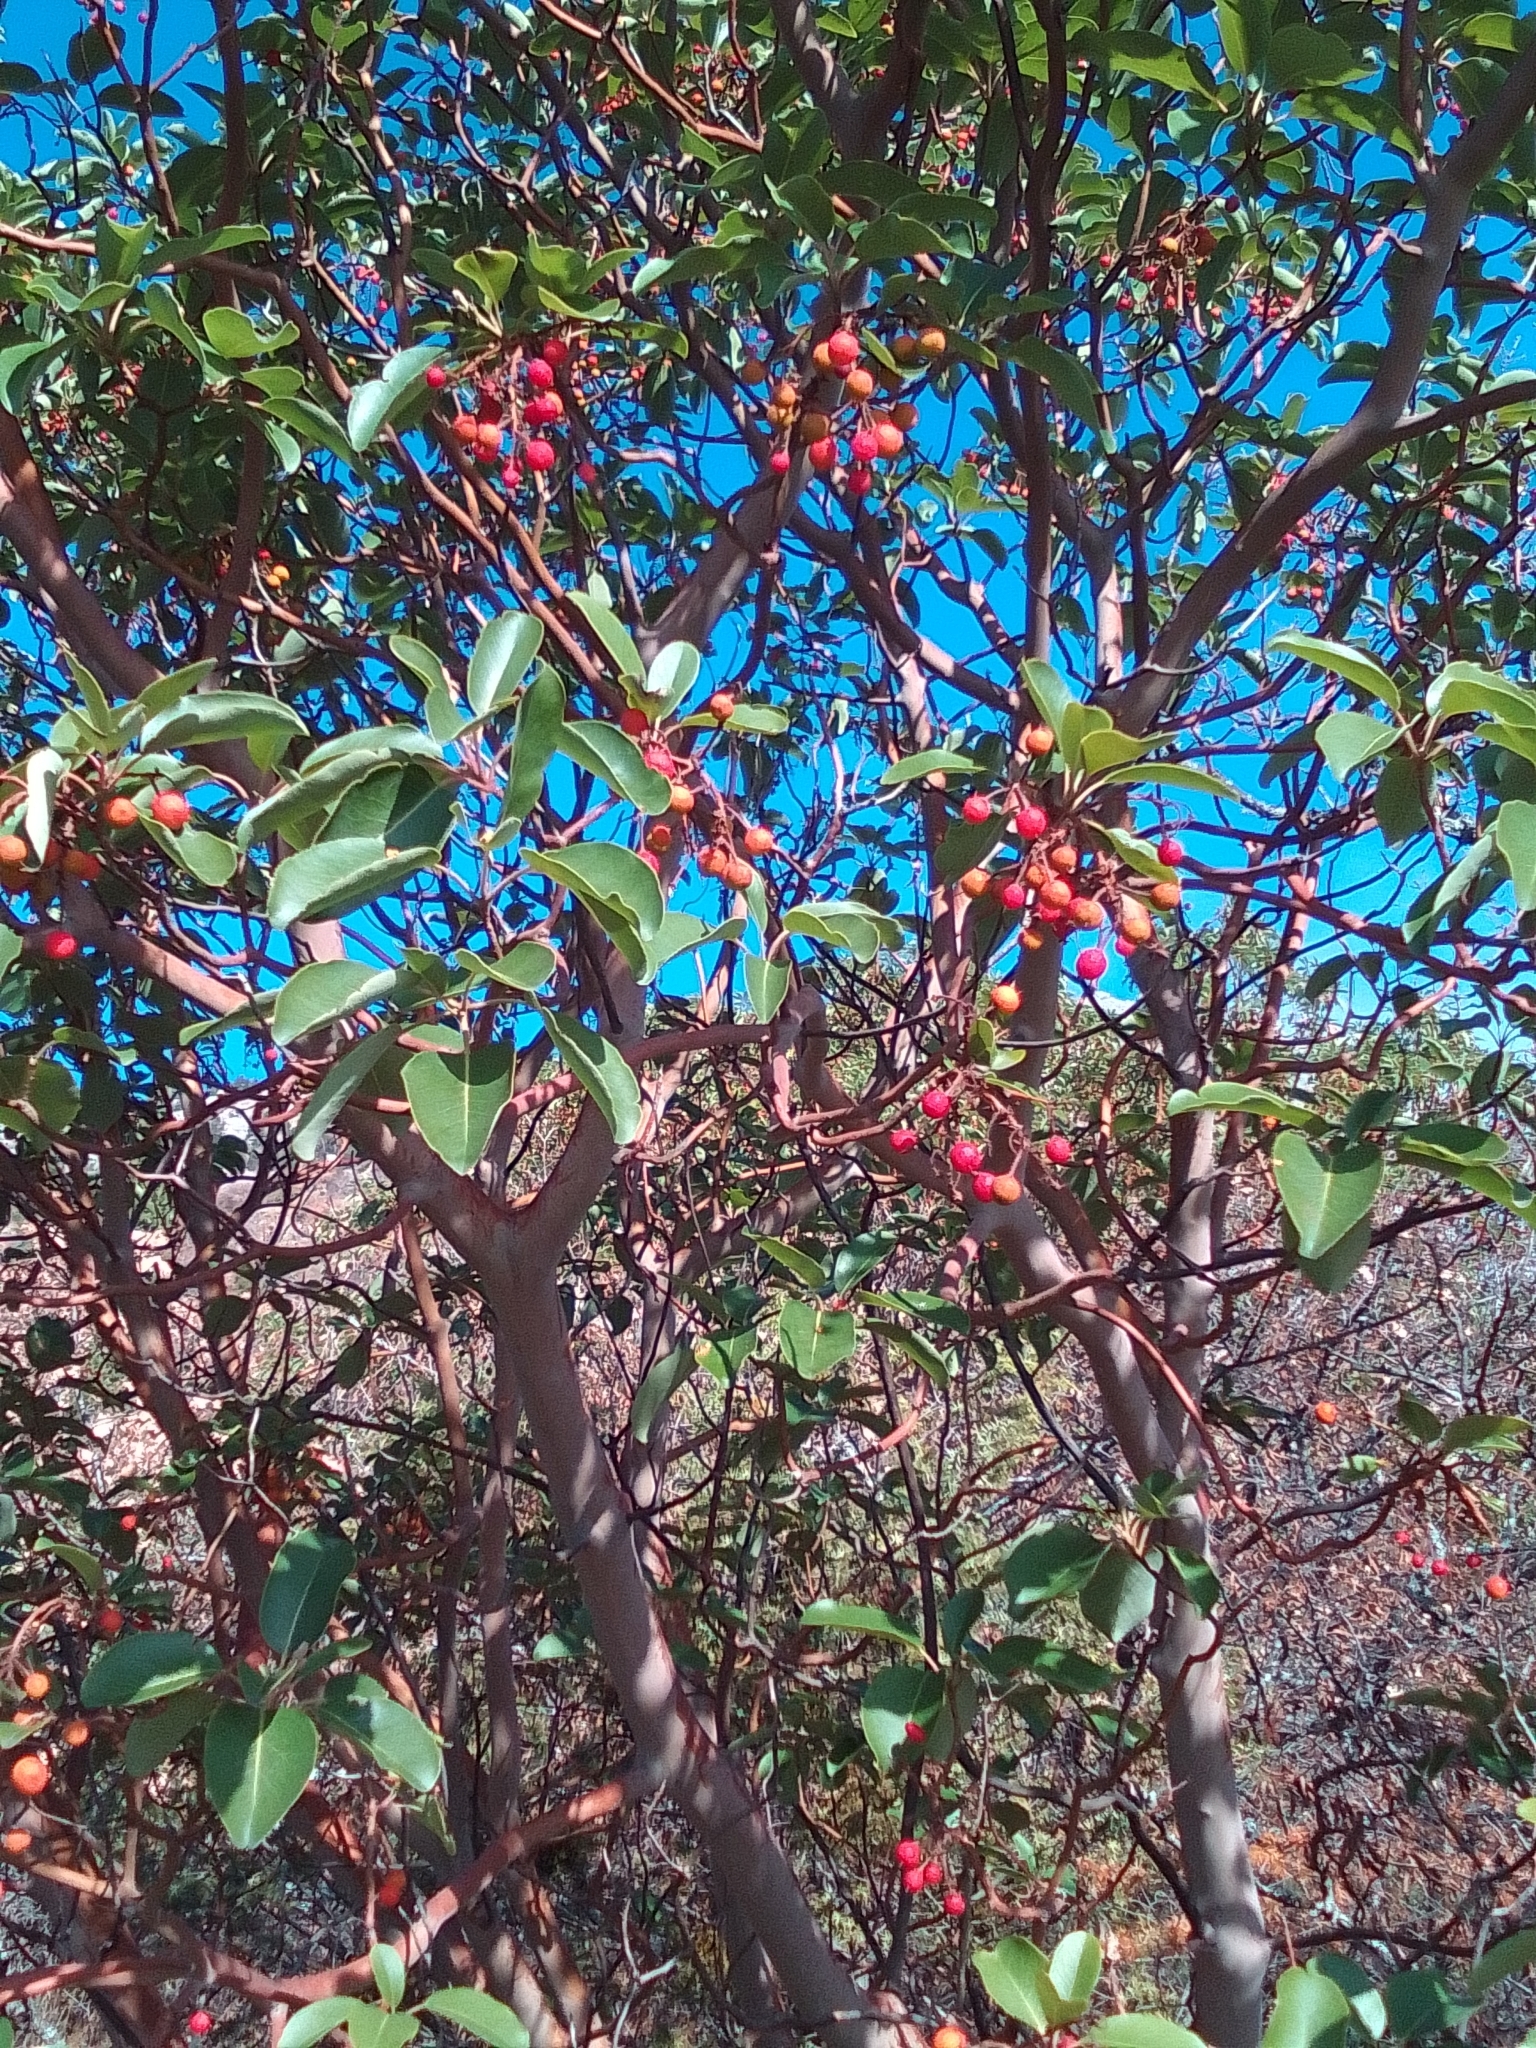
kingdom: Plantae
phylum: Tracheophyta
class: Magnoliopsida
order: Ericales
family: Ericaceae
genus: Arbutus
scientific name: Arbutus andrachne
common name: Greek strawberry tree
